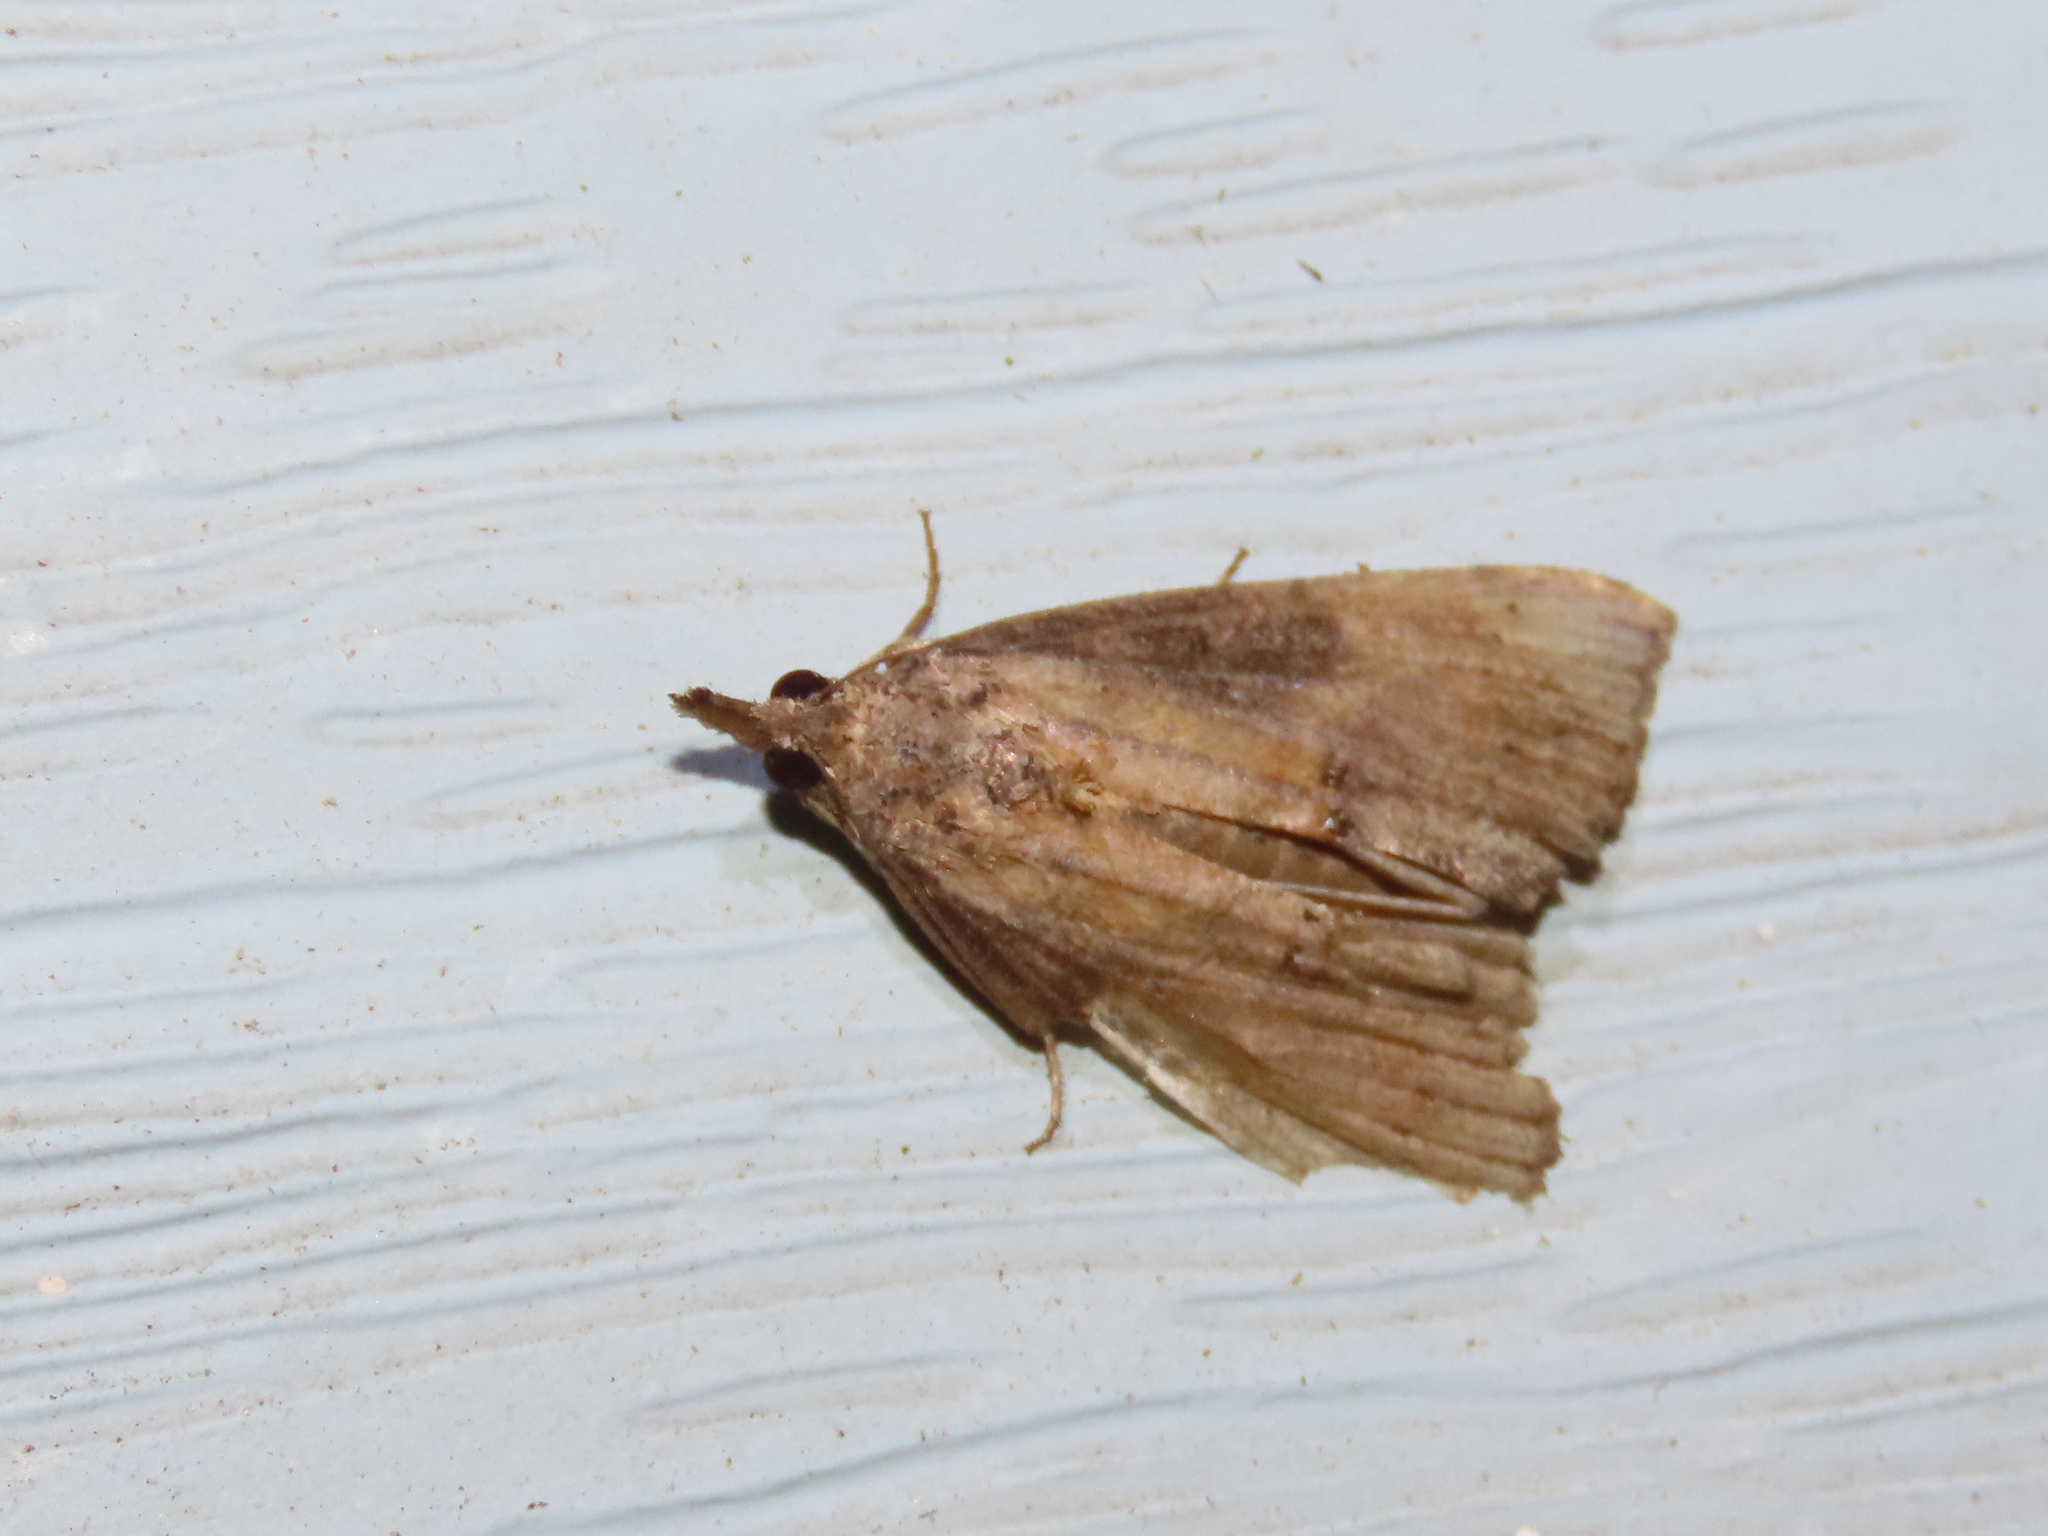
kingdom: Animalia
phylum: Arthropoda
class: Insecta
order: Lepidoptera
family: Erebidae
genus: Hypena
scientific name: Hypena scabra
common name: Green cloverworm
